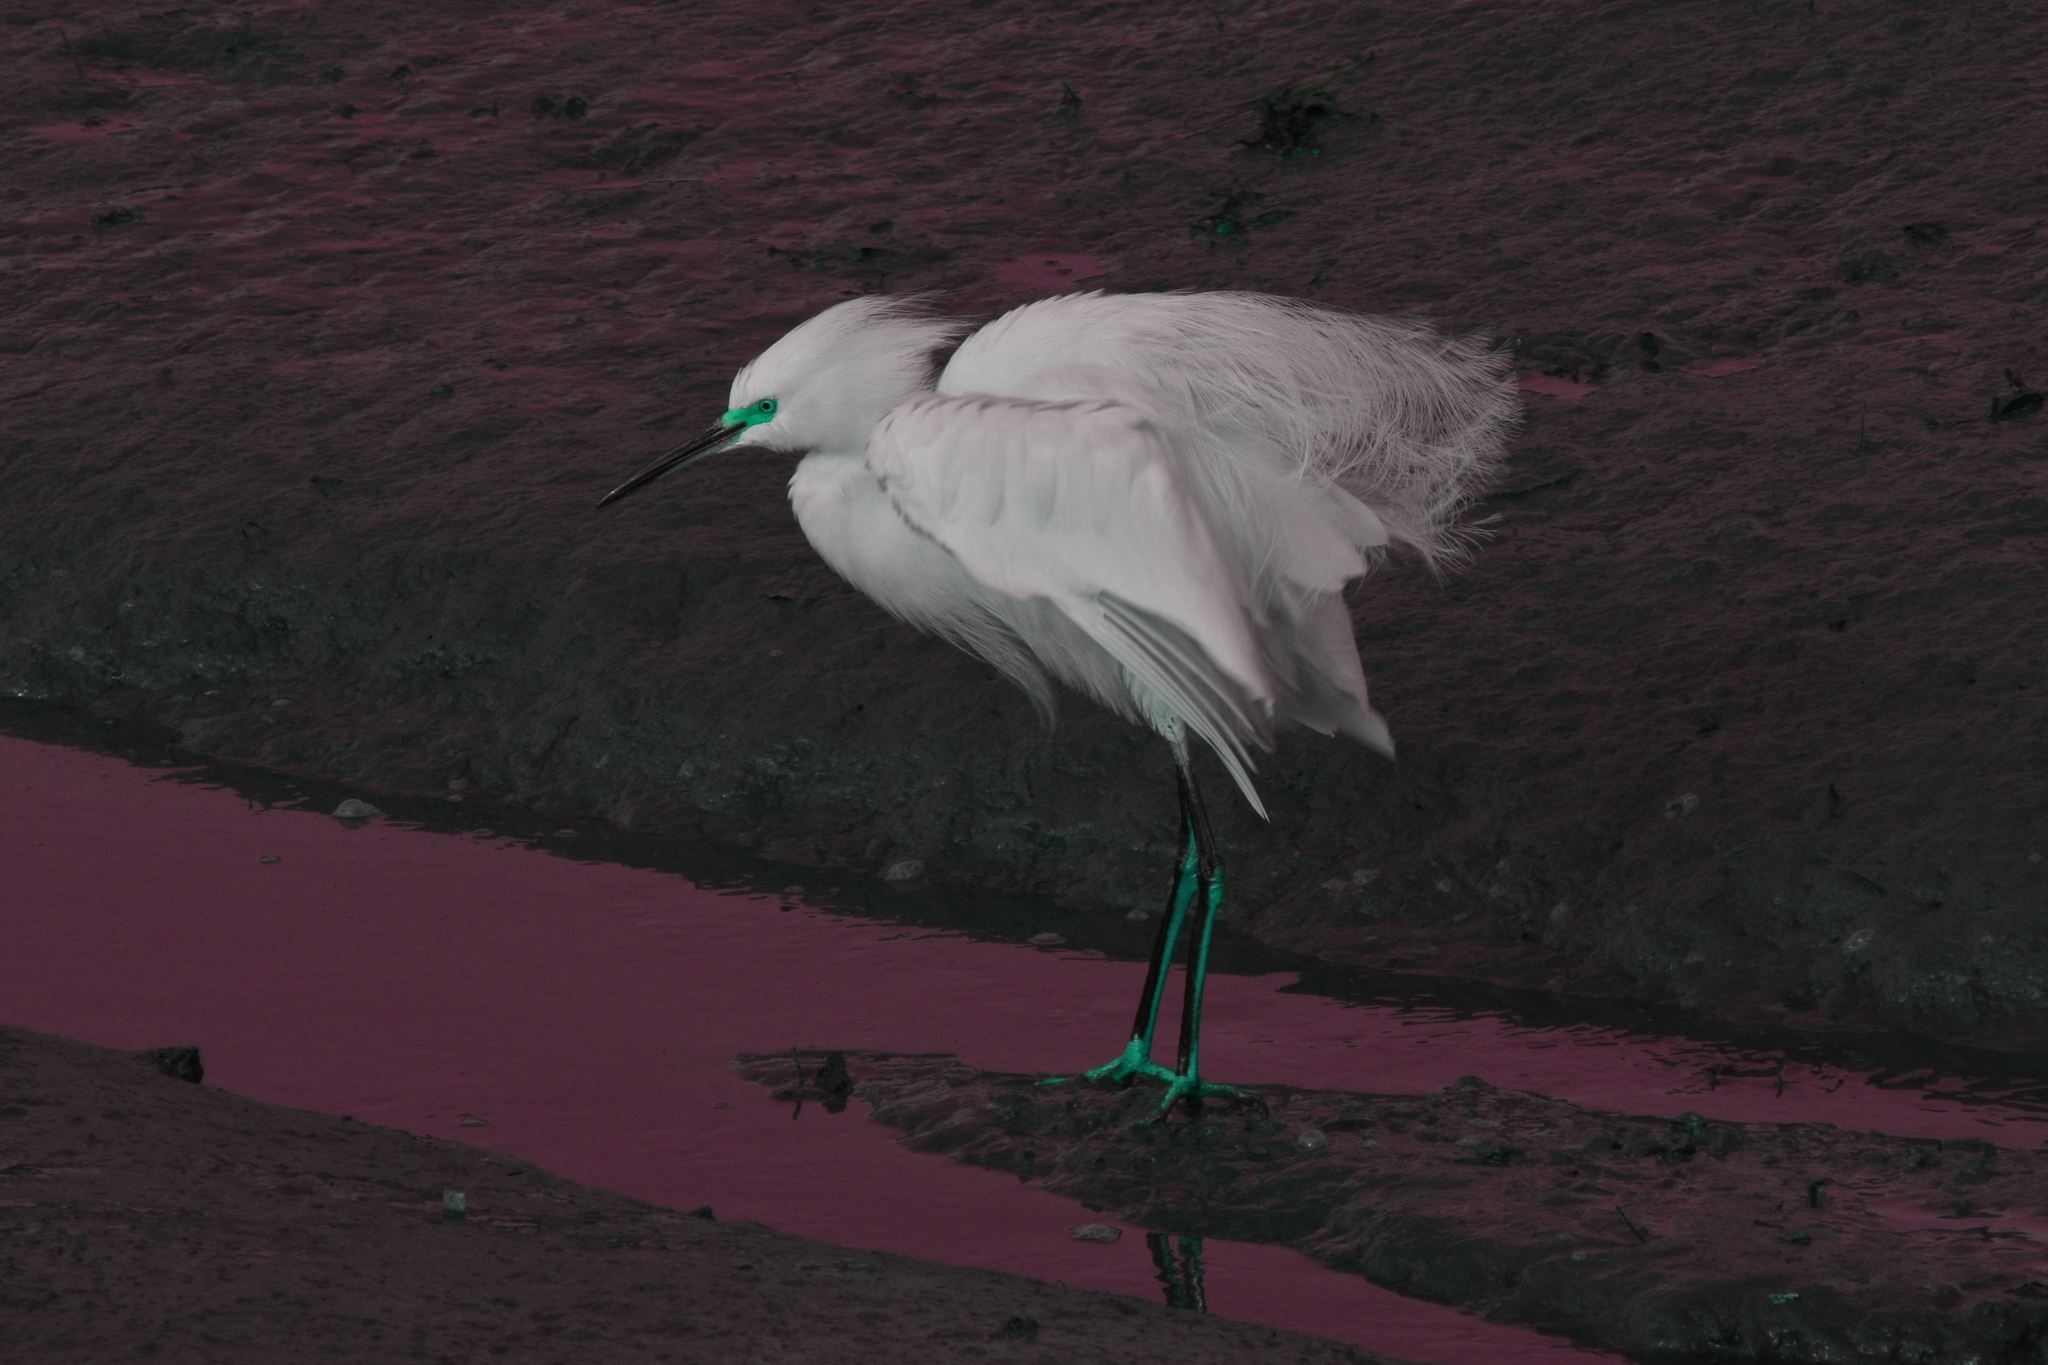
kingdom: Animalia
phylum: Chordata
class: Aves
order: Pelecaniformes
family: Ardeidae
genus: Egretta
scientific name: Egretta thula
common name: Snowy egret
